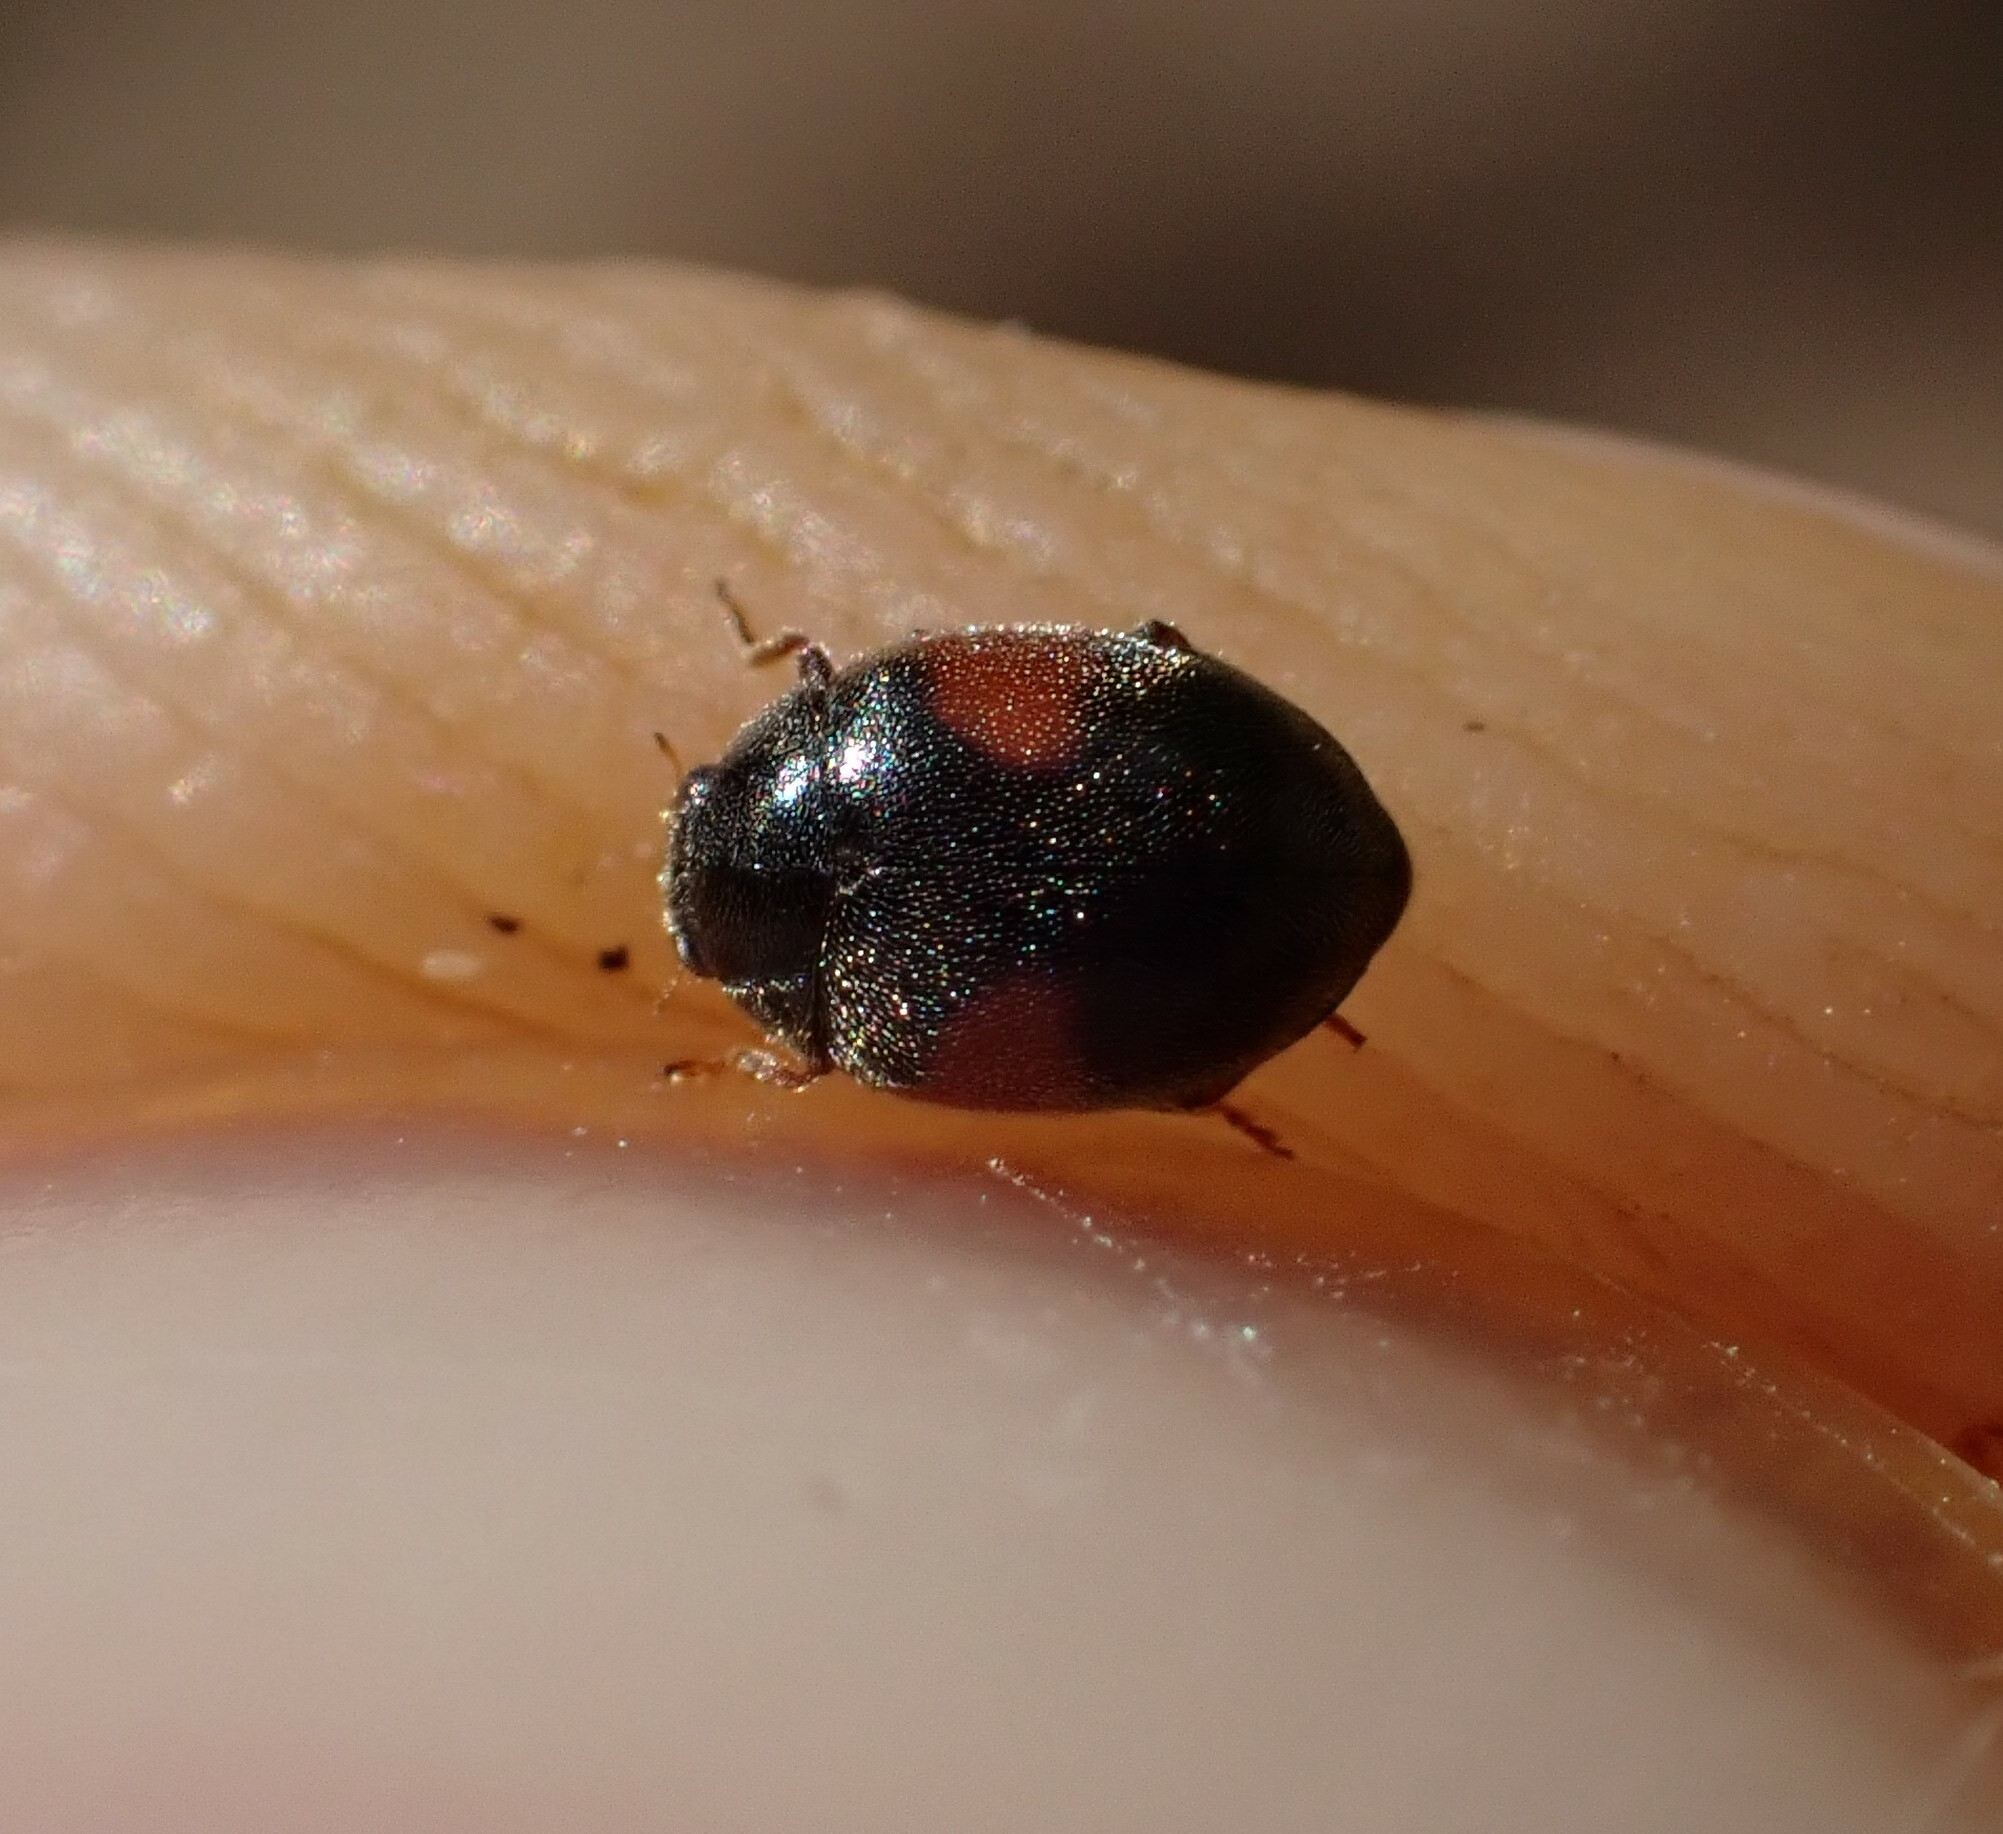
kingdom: Animalia
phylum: Arthropoda
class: Insecta
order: Coleoptera
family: Coccinellidae
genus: Scymnus
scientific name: Scymnus marginalis
